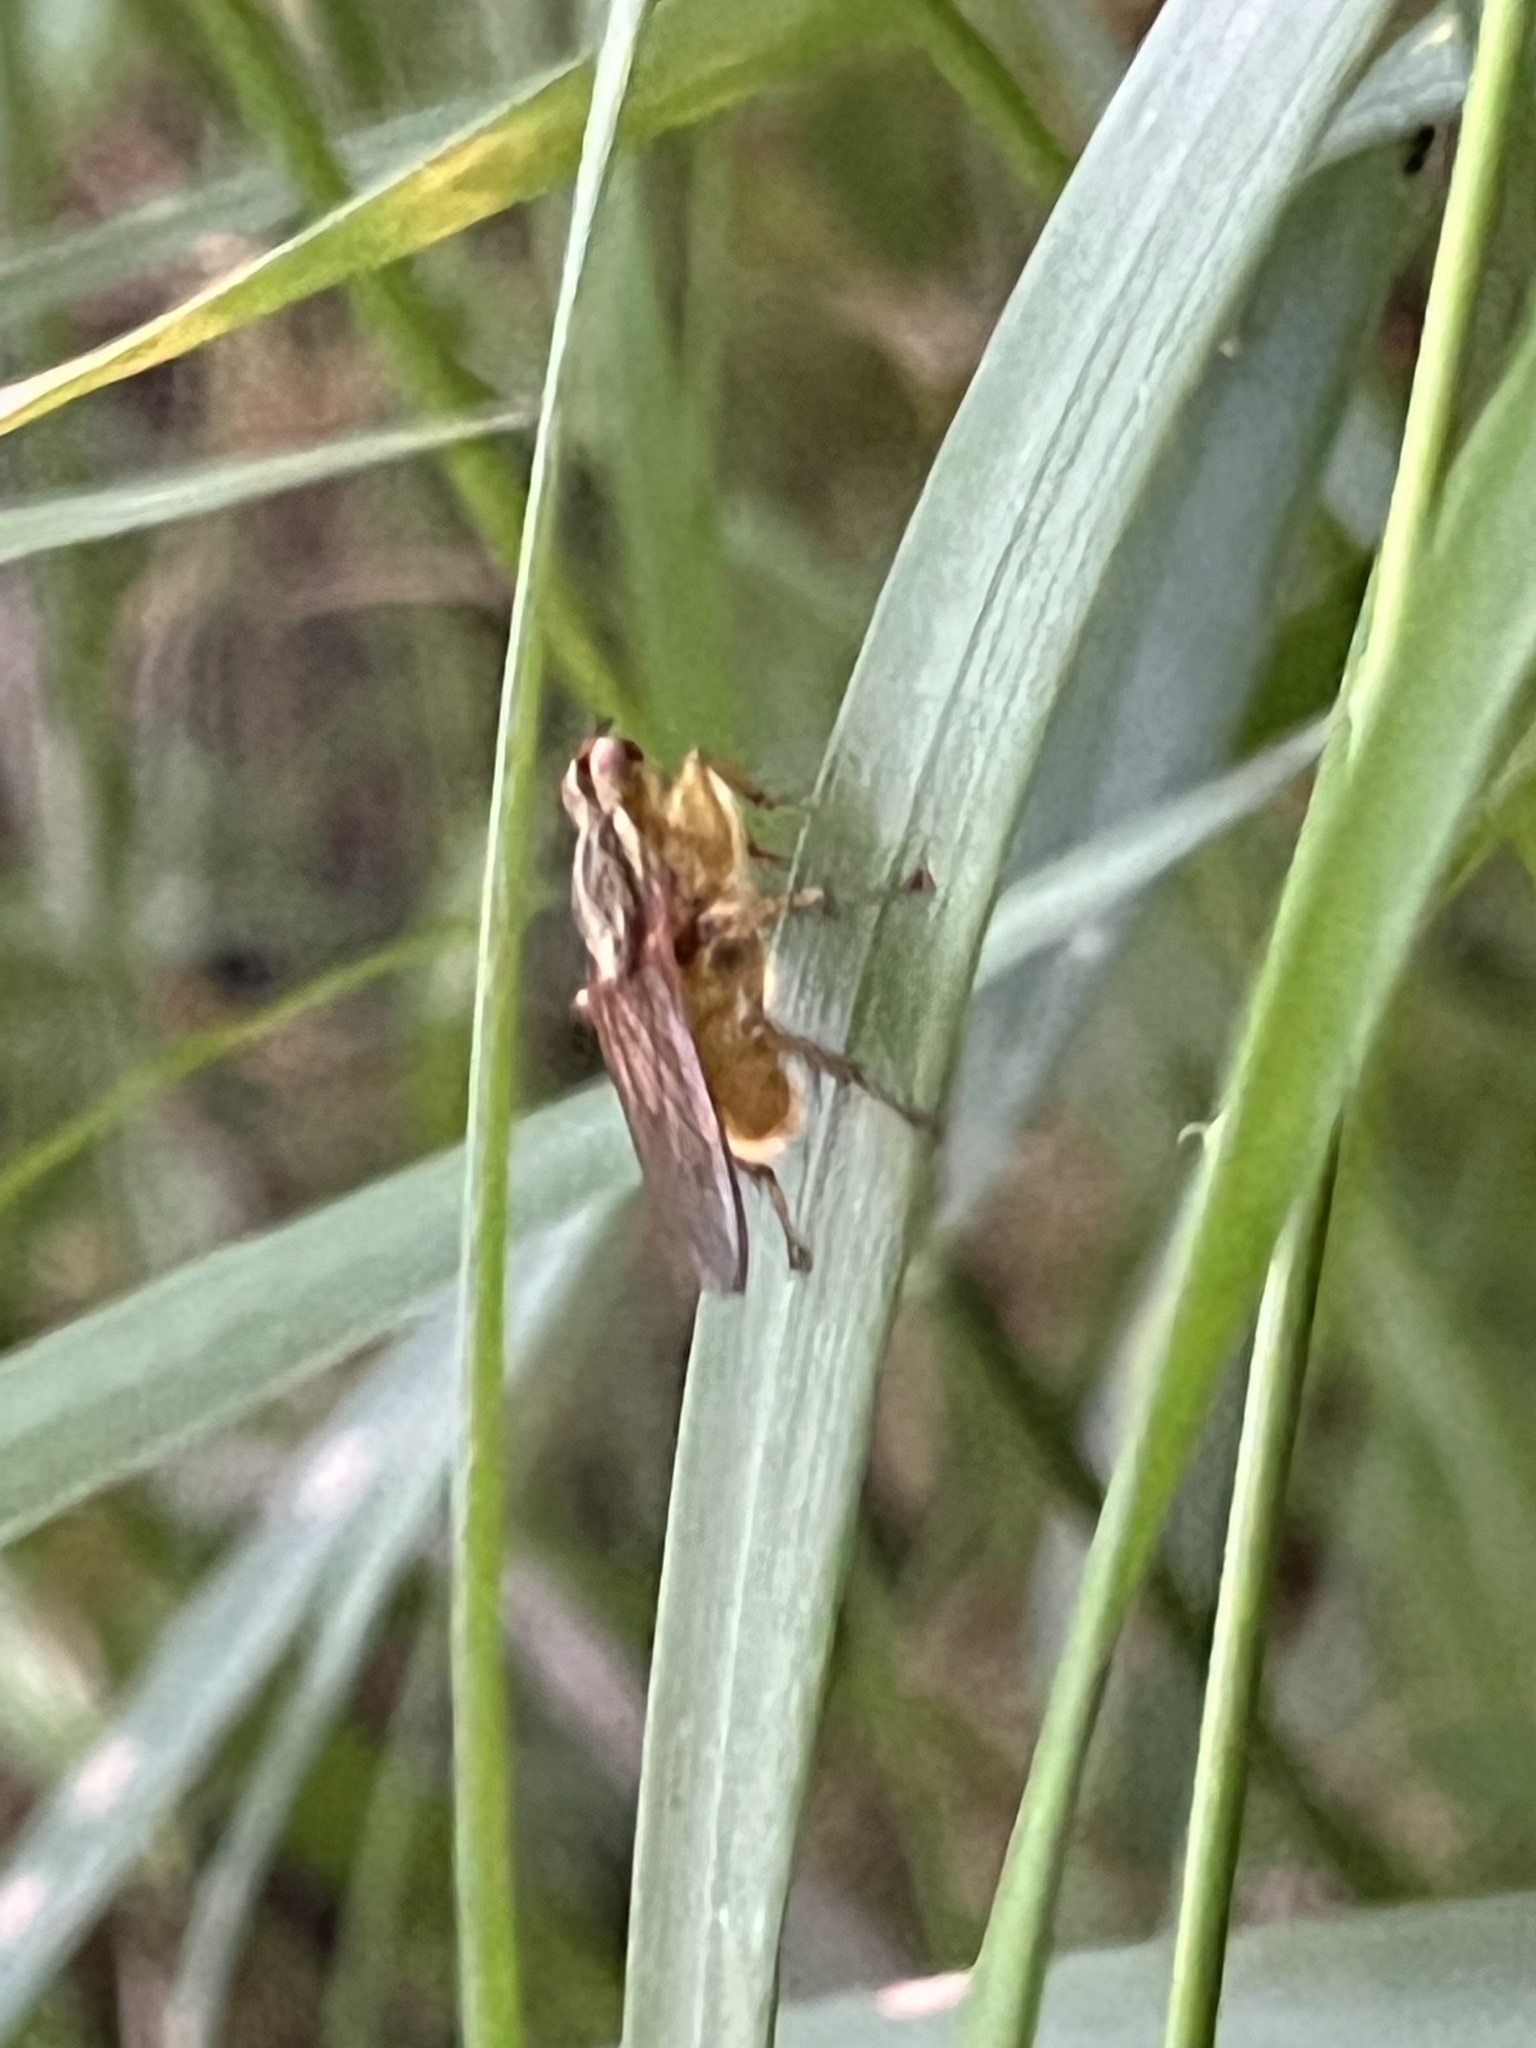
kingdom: Animalia
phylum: Arthropoda
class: Insecta
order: Diptera
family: Scathophagidae
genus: Scathophaga
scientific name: Scathophaga stercoraria
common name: Yellow dung fly
